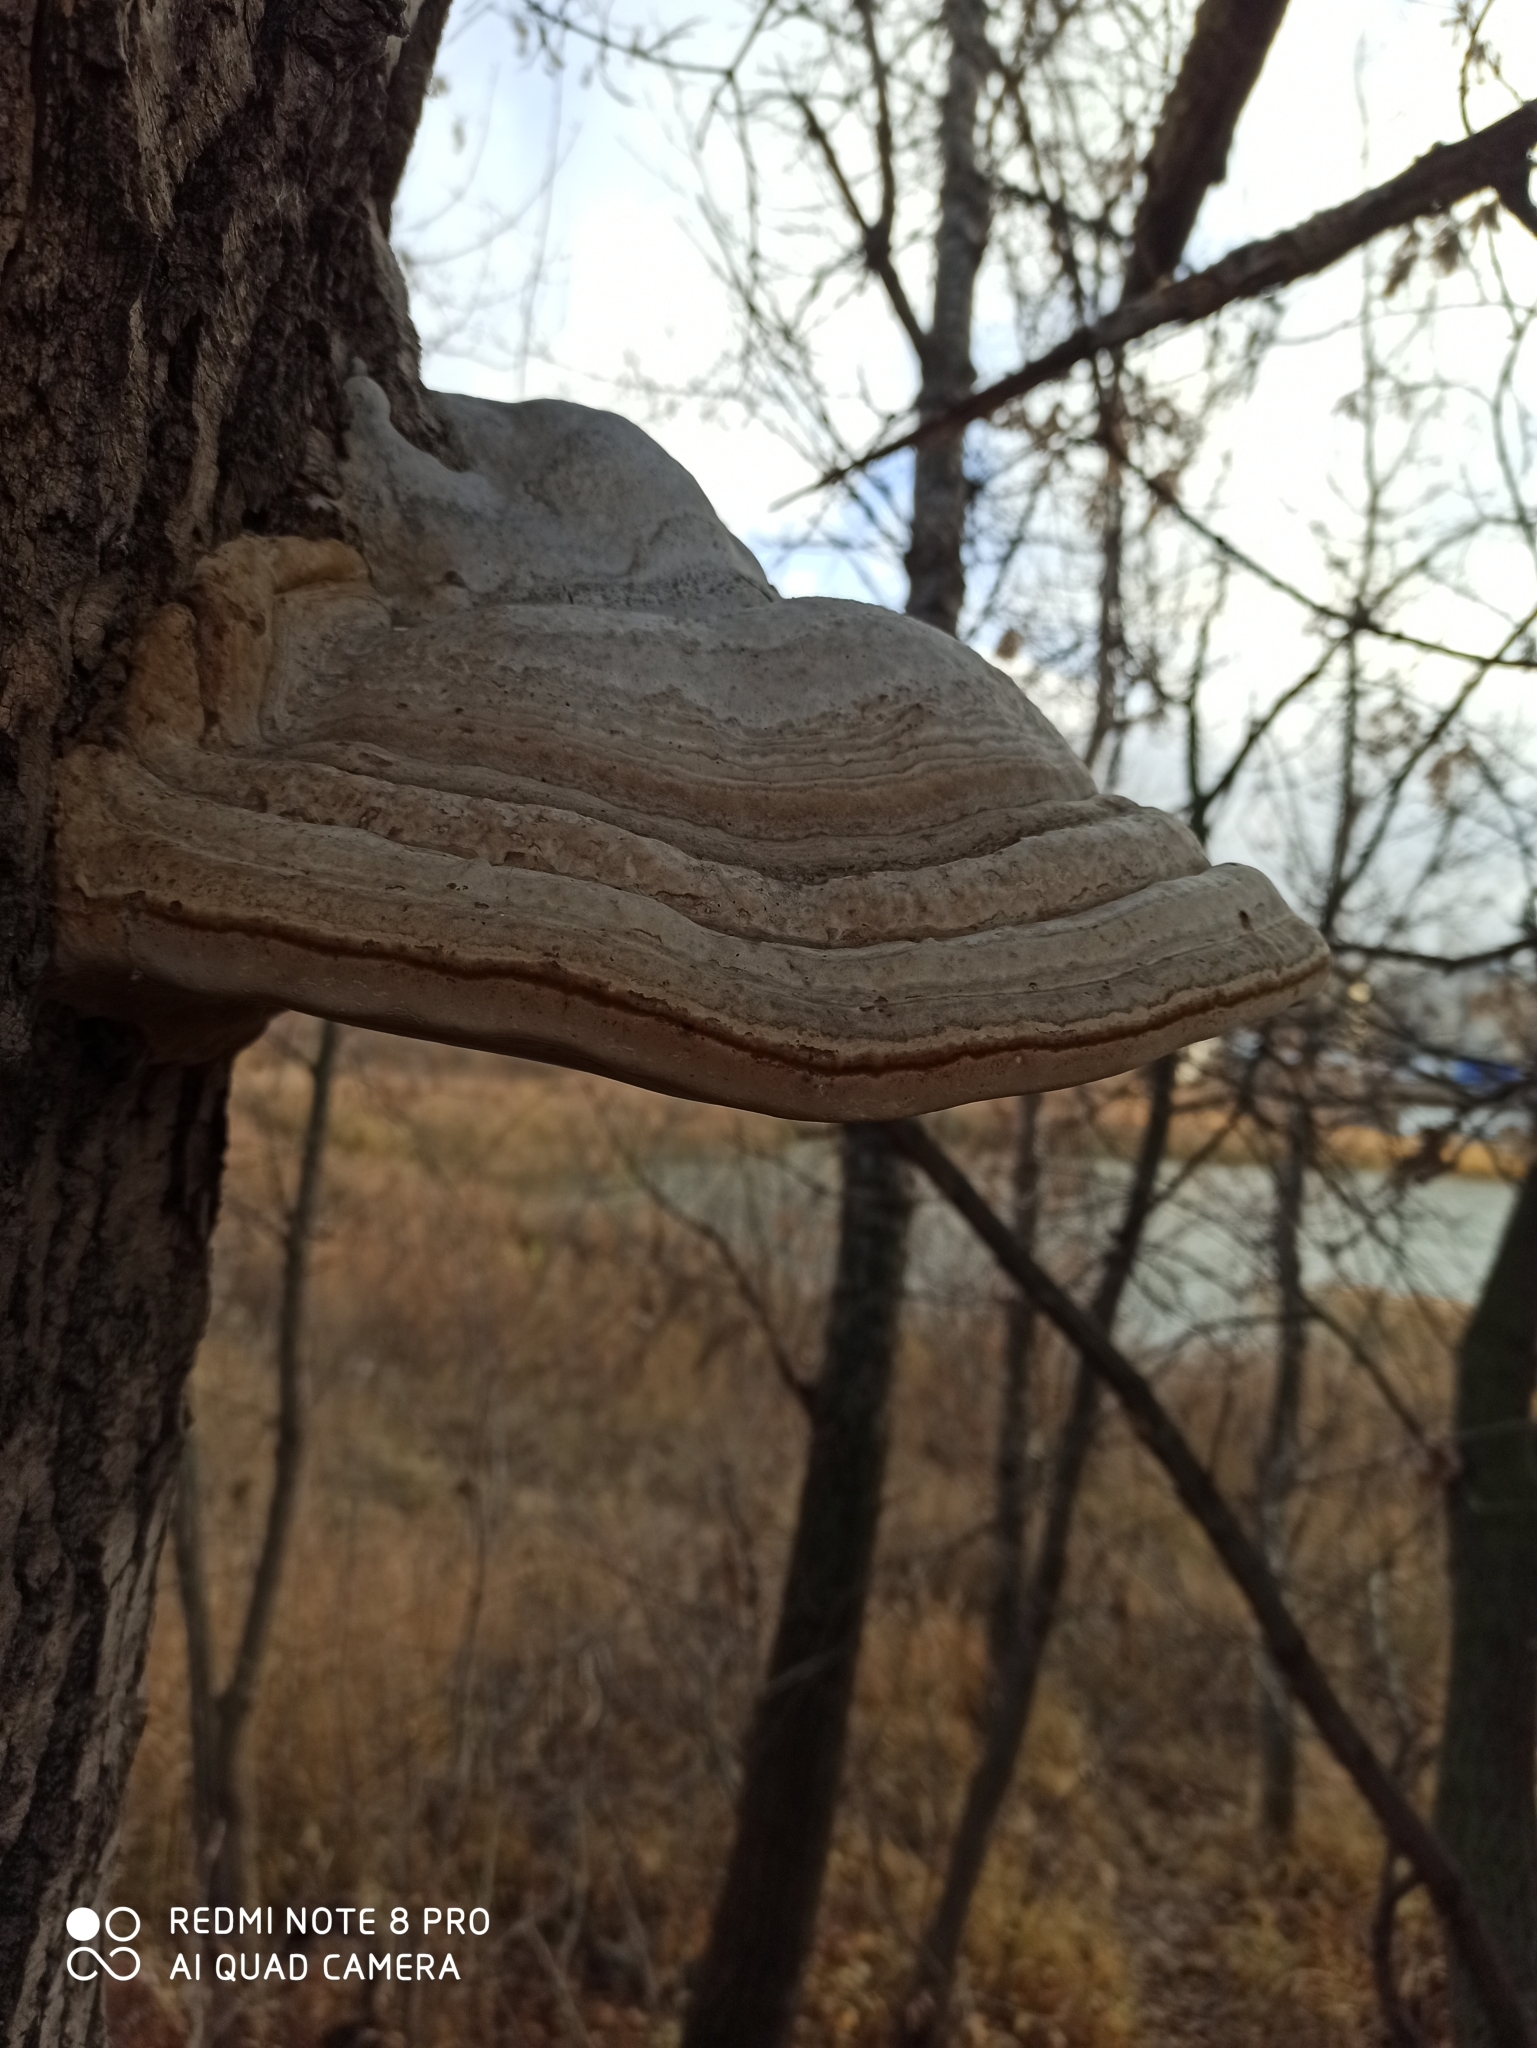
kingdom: Fungi
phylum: Basidiomycota
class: Agaricomycetes
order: Polyporales
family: Polyporaceae
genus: Fomes
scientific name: Fomes fomentarius
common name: Hoof fungus
